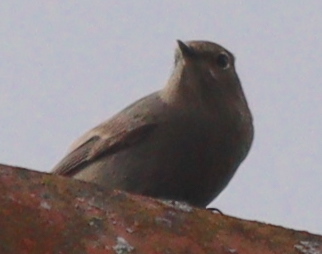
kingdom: Animalia
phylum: Chordata
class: Aves
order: Passeriformes
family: Muscicapidae
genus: Phoenicurus
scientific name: Phoenicurus ochruros
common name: Black redstart
